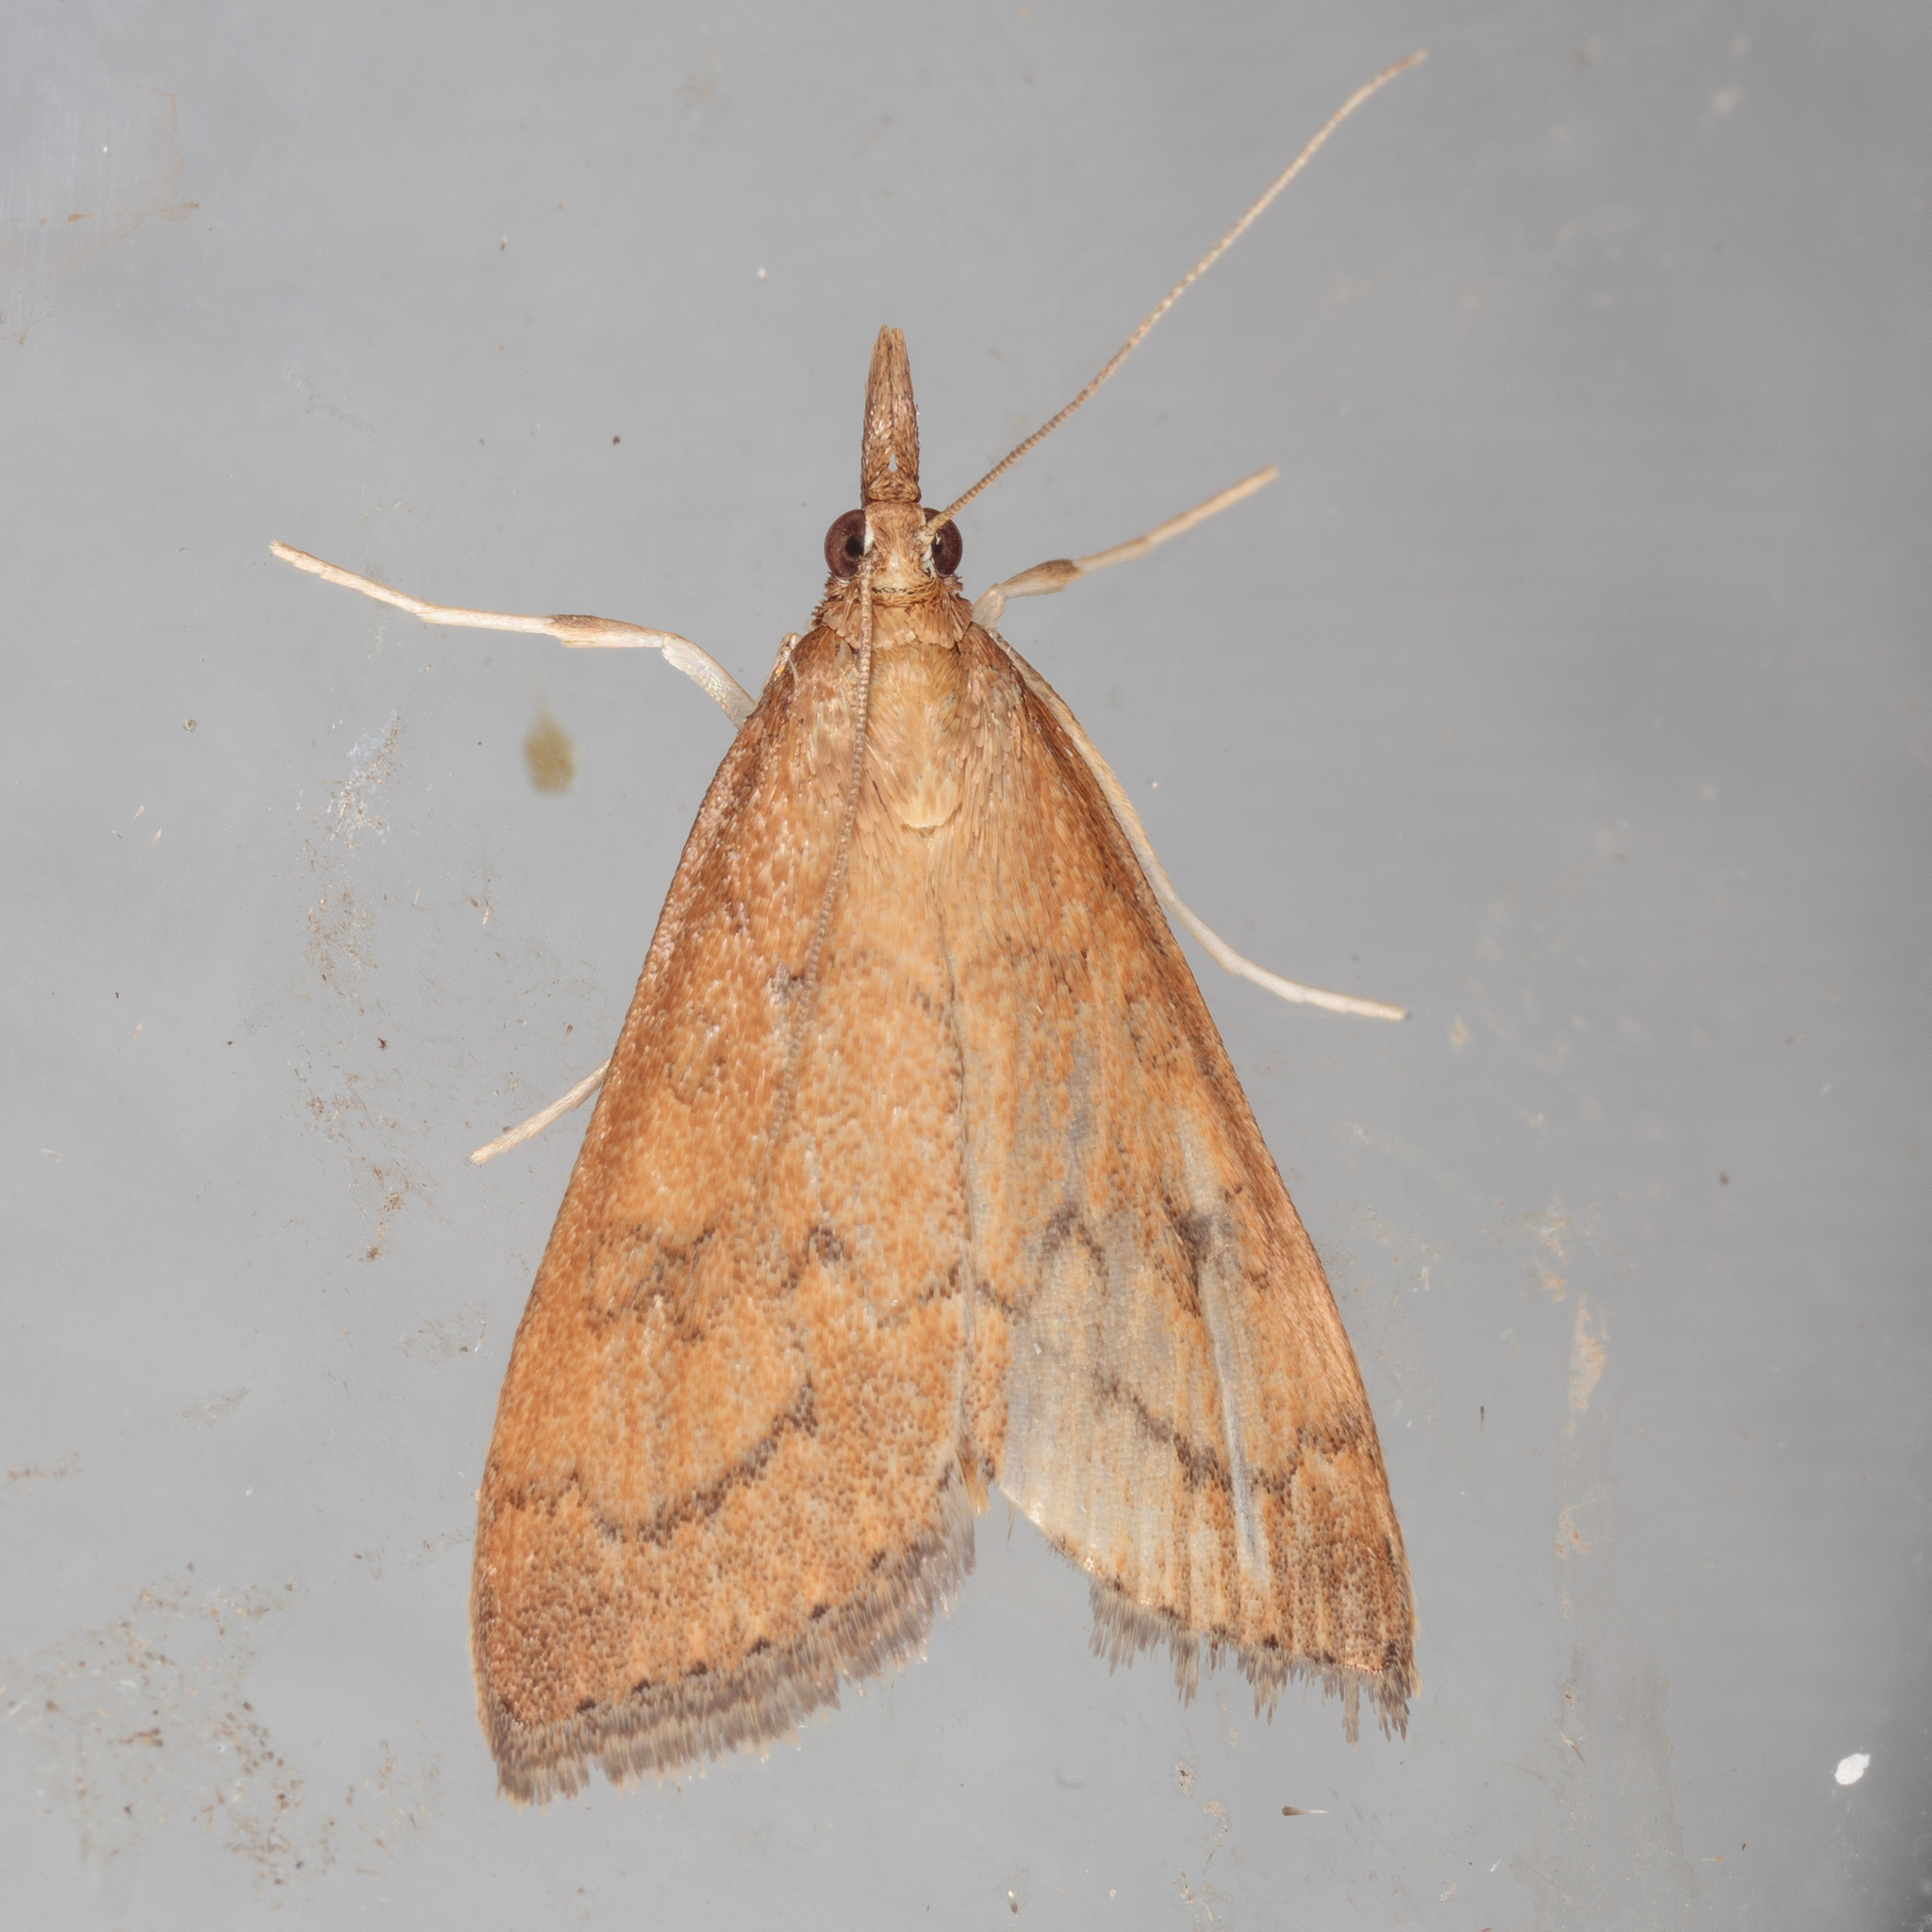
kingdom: Animalia
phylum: Arthropoda
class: Insecta
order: Lepidoptera
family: Crambidae
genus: Achyra
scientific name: Achyra rantalis
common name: Garden webworm
